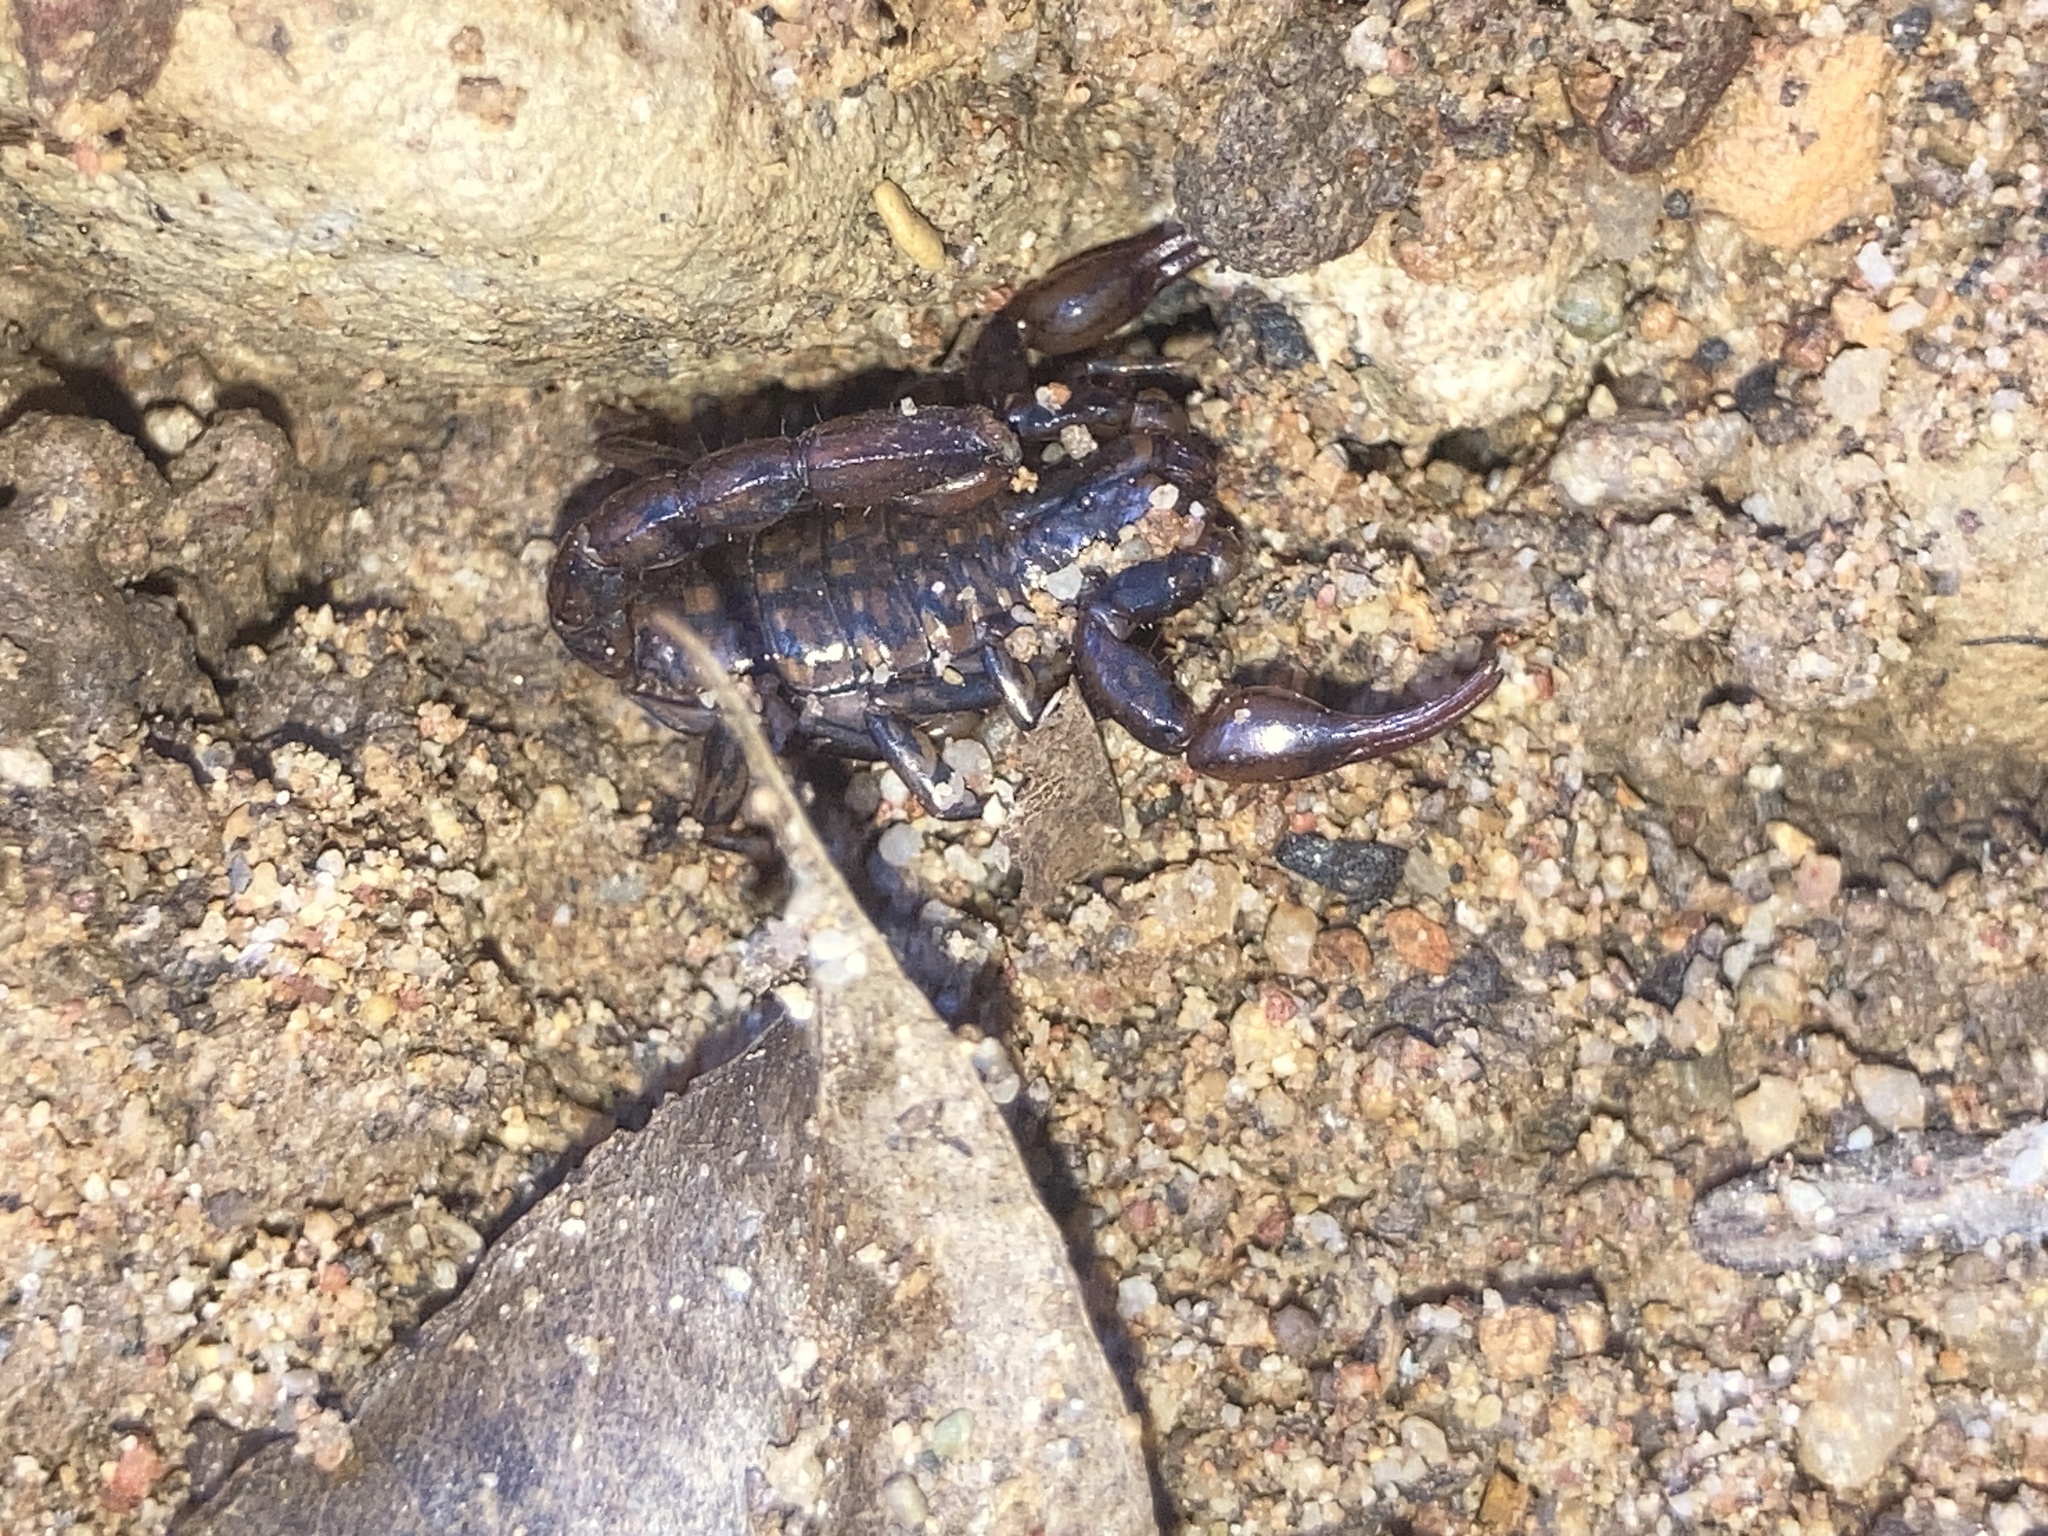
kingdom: Animalia
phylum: Arthropoda
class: Arachnida
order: Scorpiones
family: Bothriuridae
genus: Cercophonius
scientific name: Cercophonius squama
